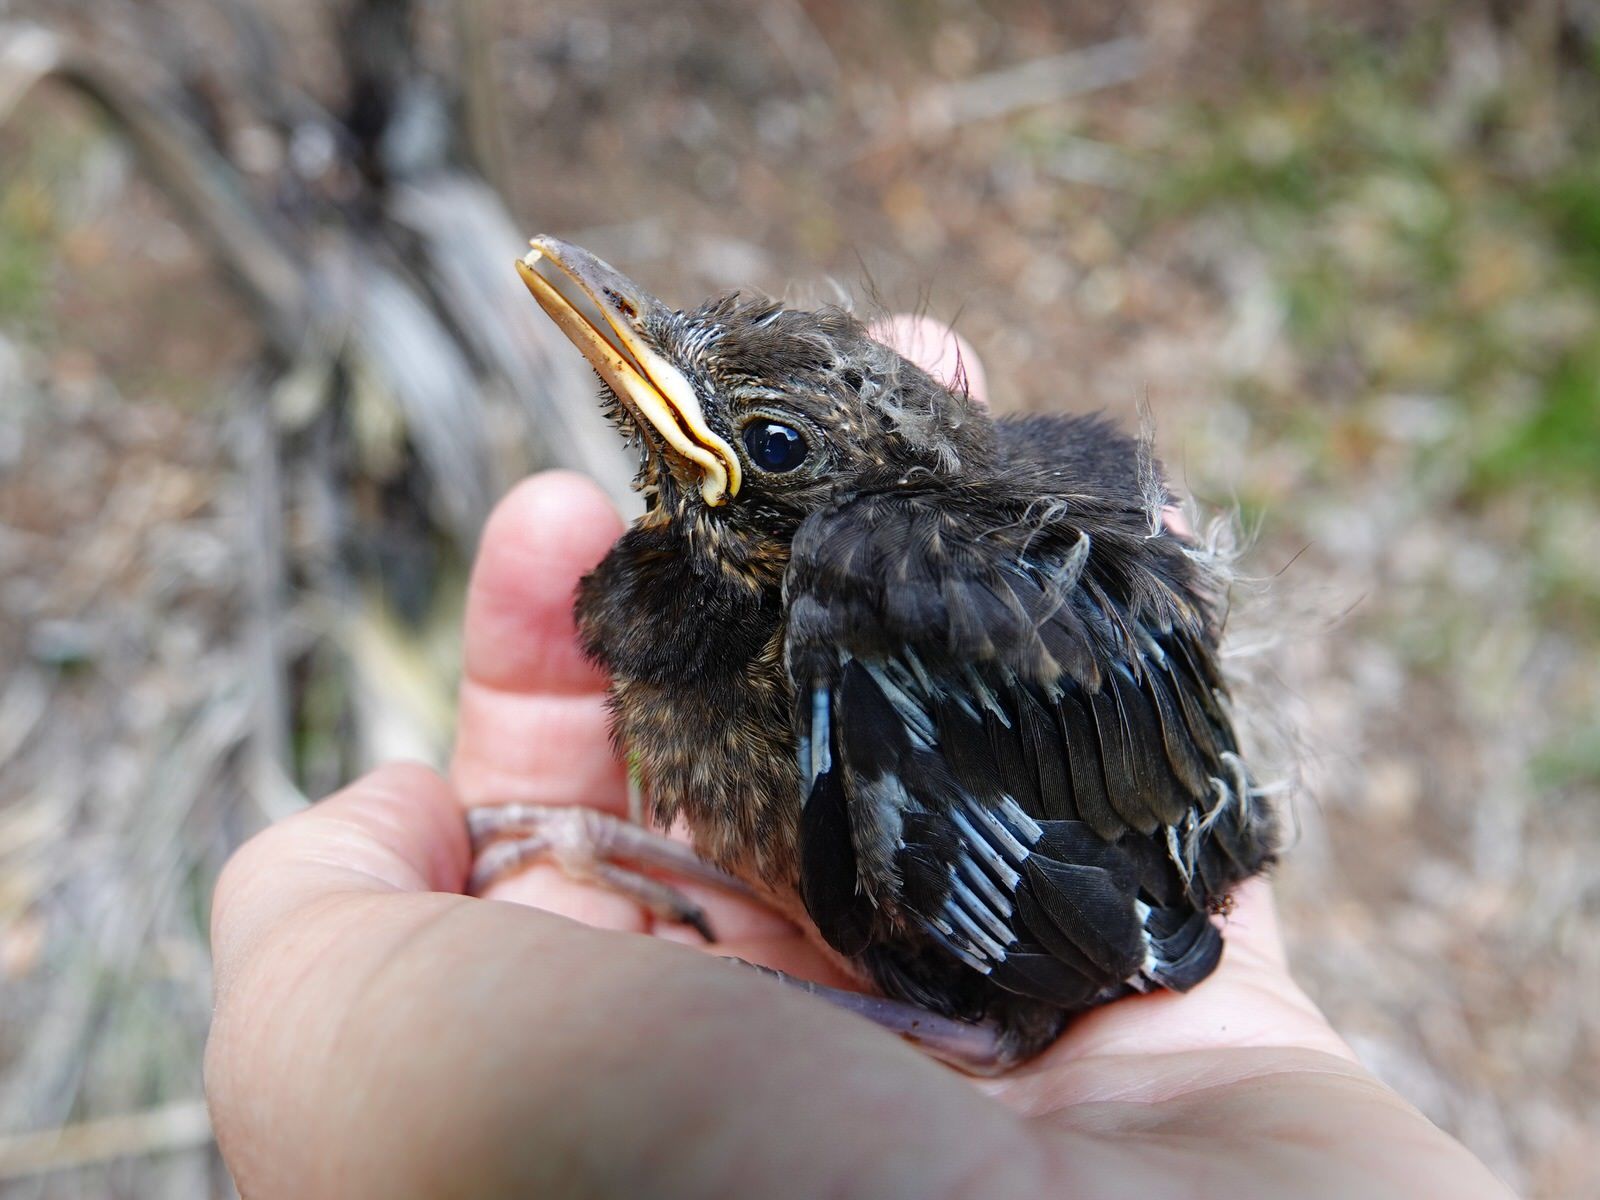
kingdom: Animalia
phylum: Chordata
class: Aves
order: Passeriformes
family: Turdidae
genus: Turdus
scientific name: Turdus merula
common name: Common blackbird
